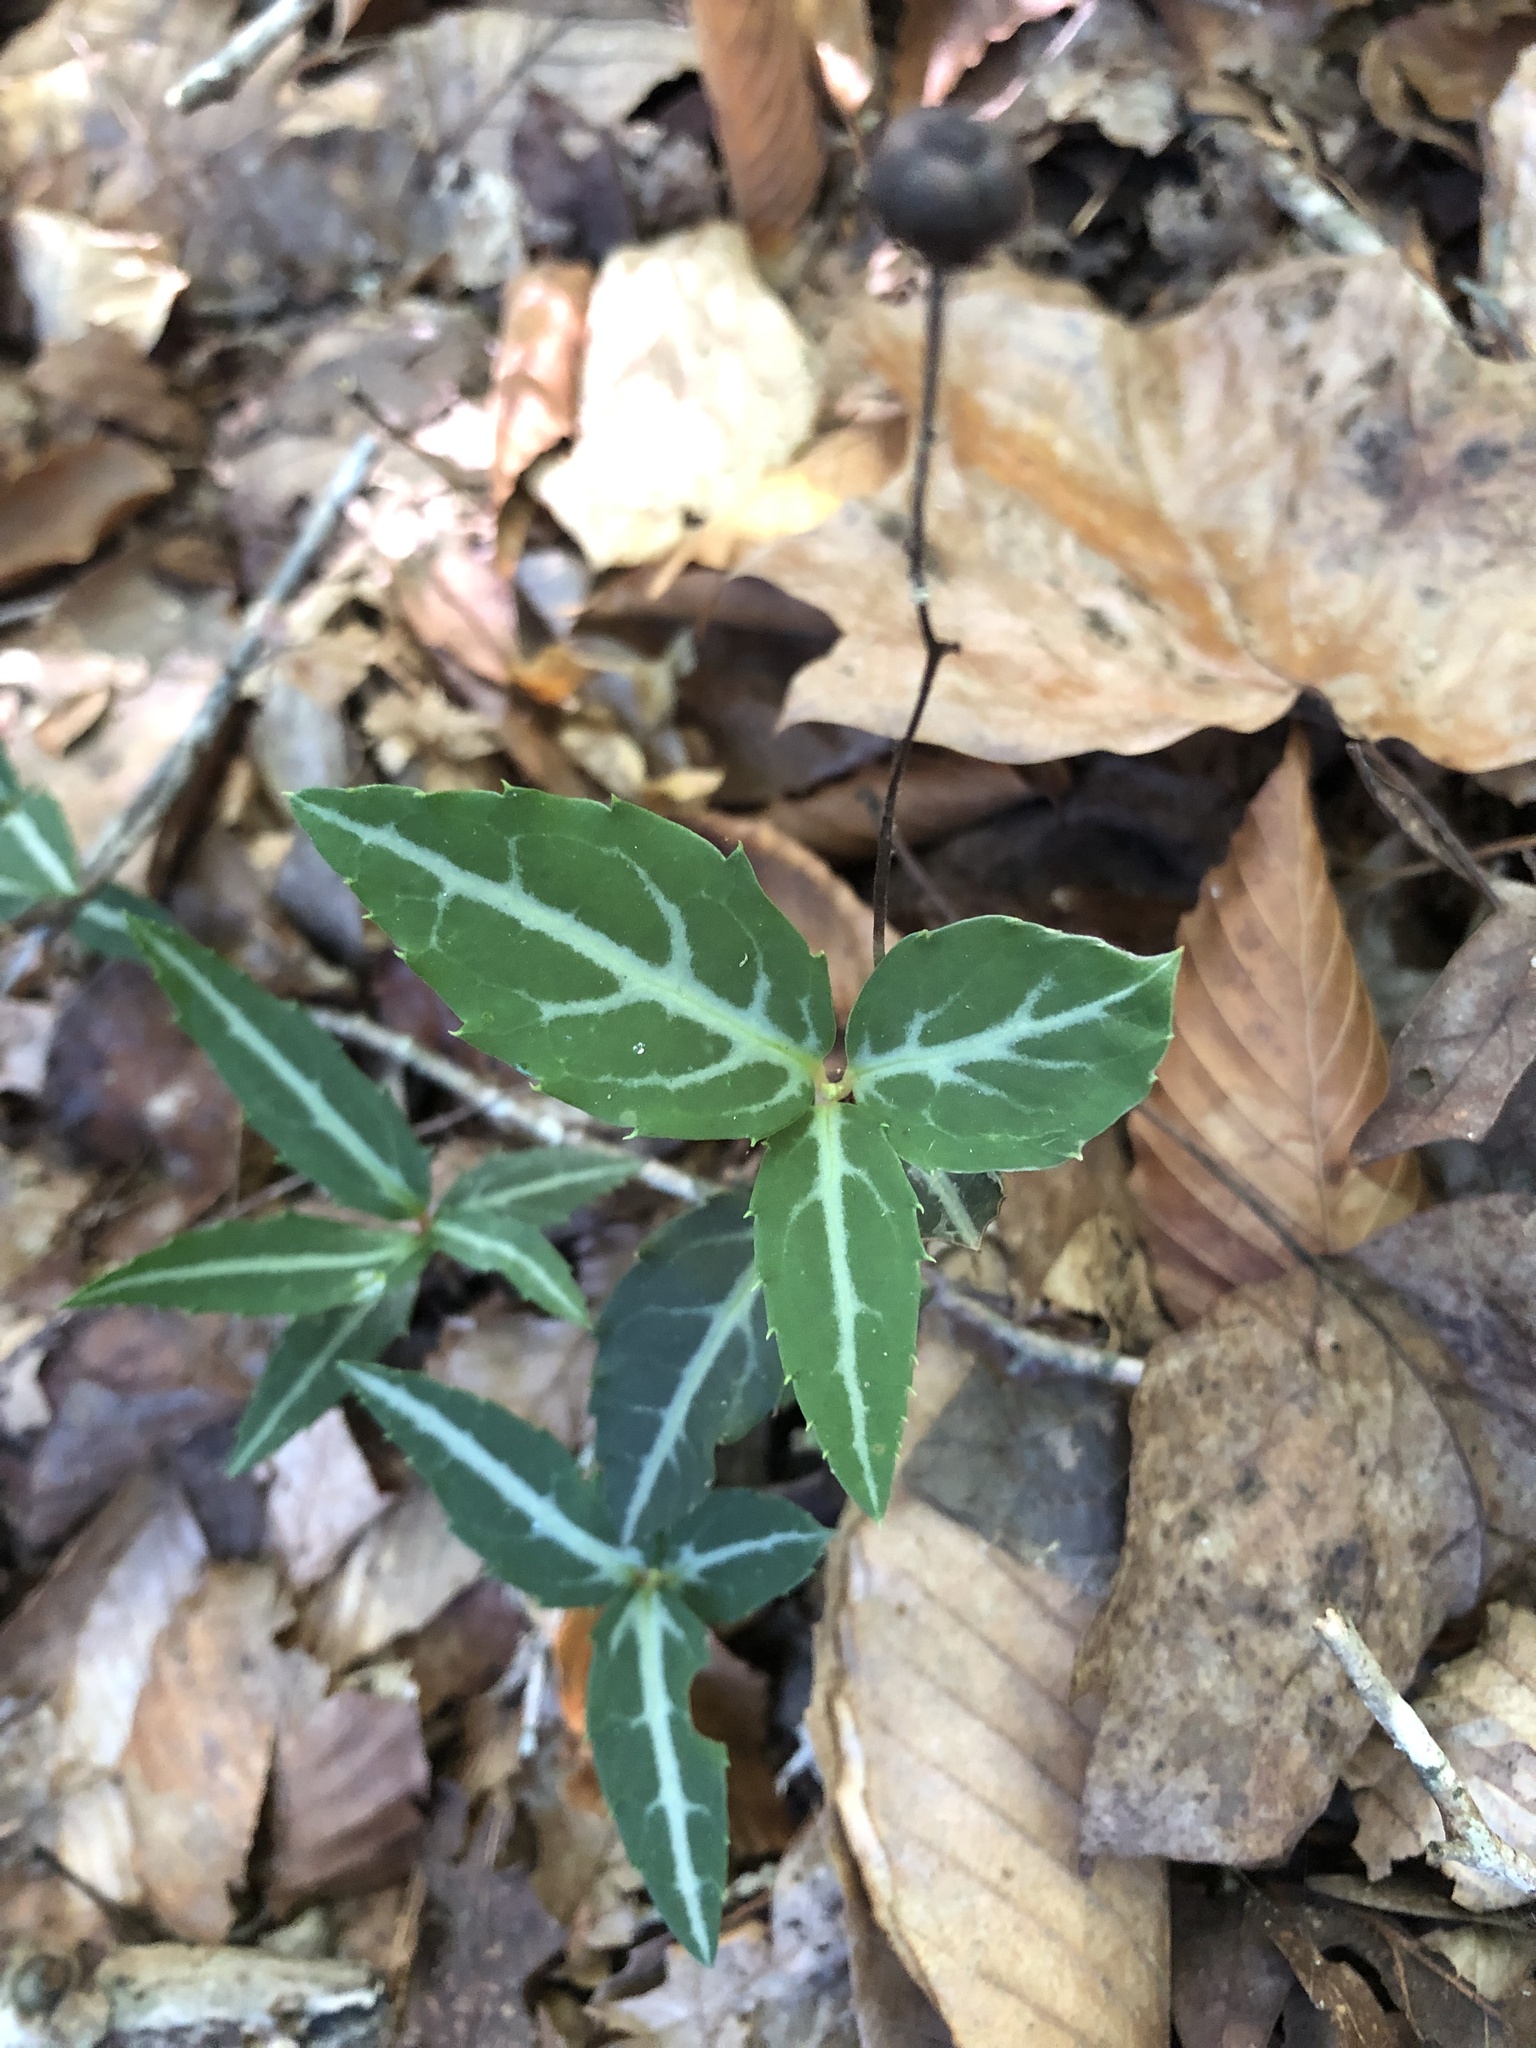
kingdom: Plantae
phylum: Tracheophyta
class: Magnoliopsida
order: Ericales
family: Ericaceae
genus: Chimaphila
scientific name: Chimaphila maculata
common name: Spotted pipsissewa
